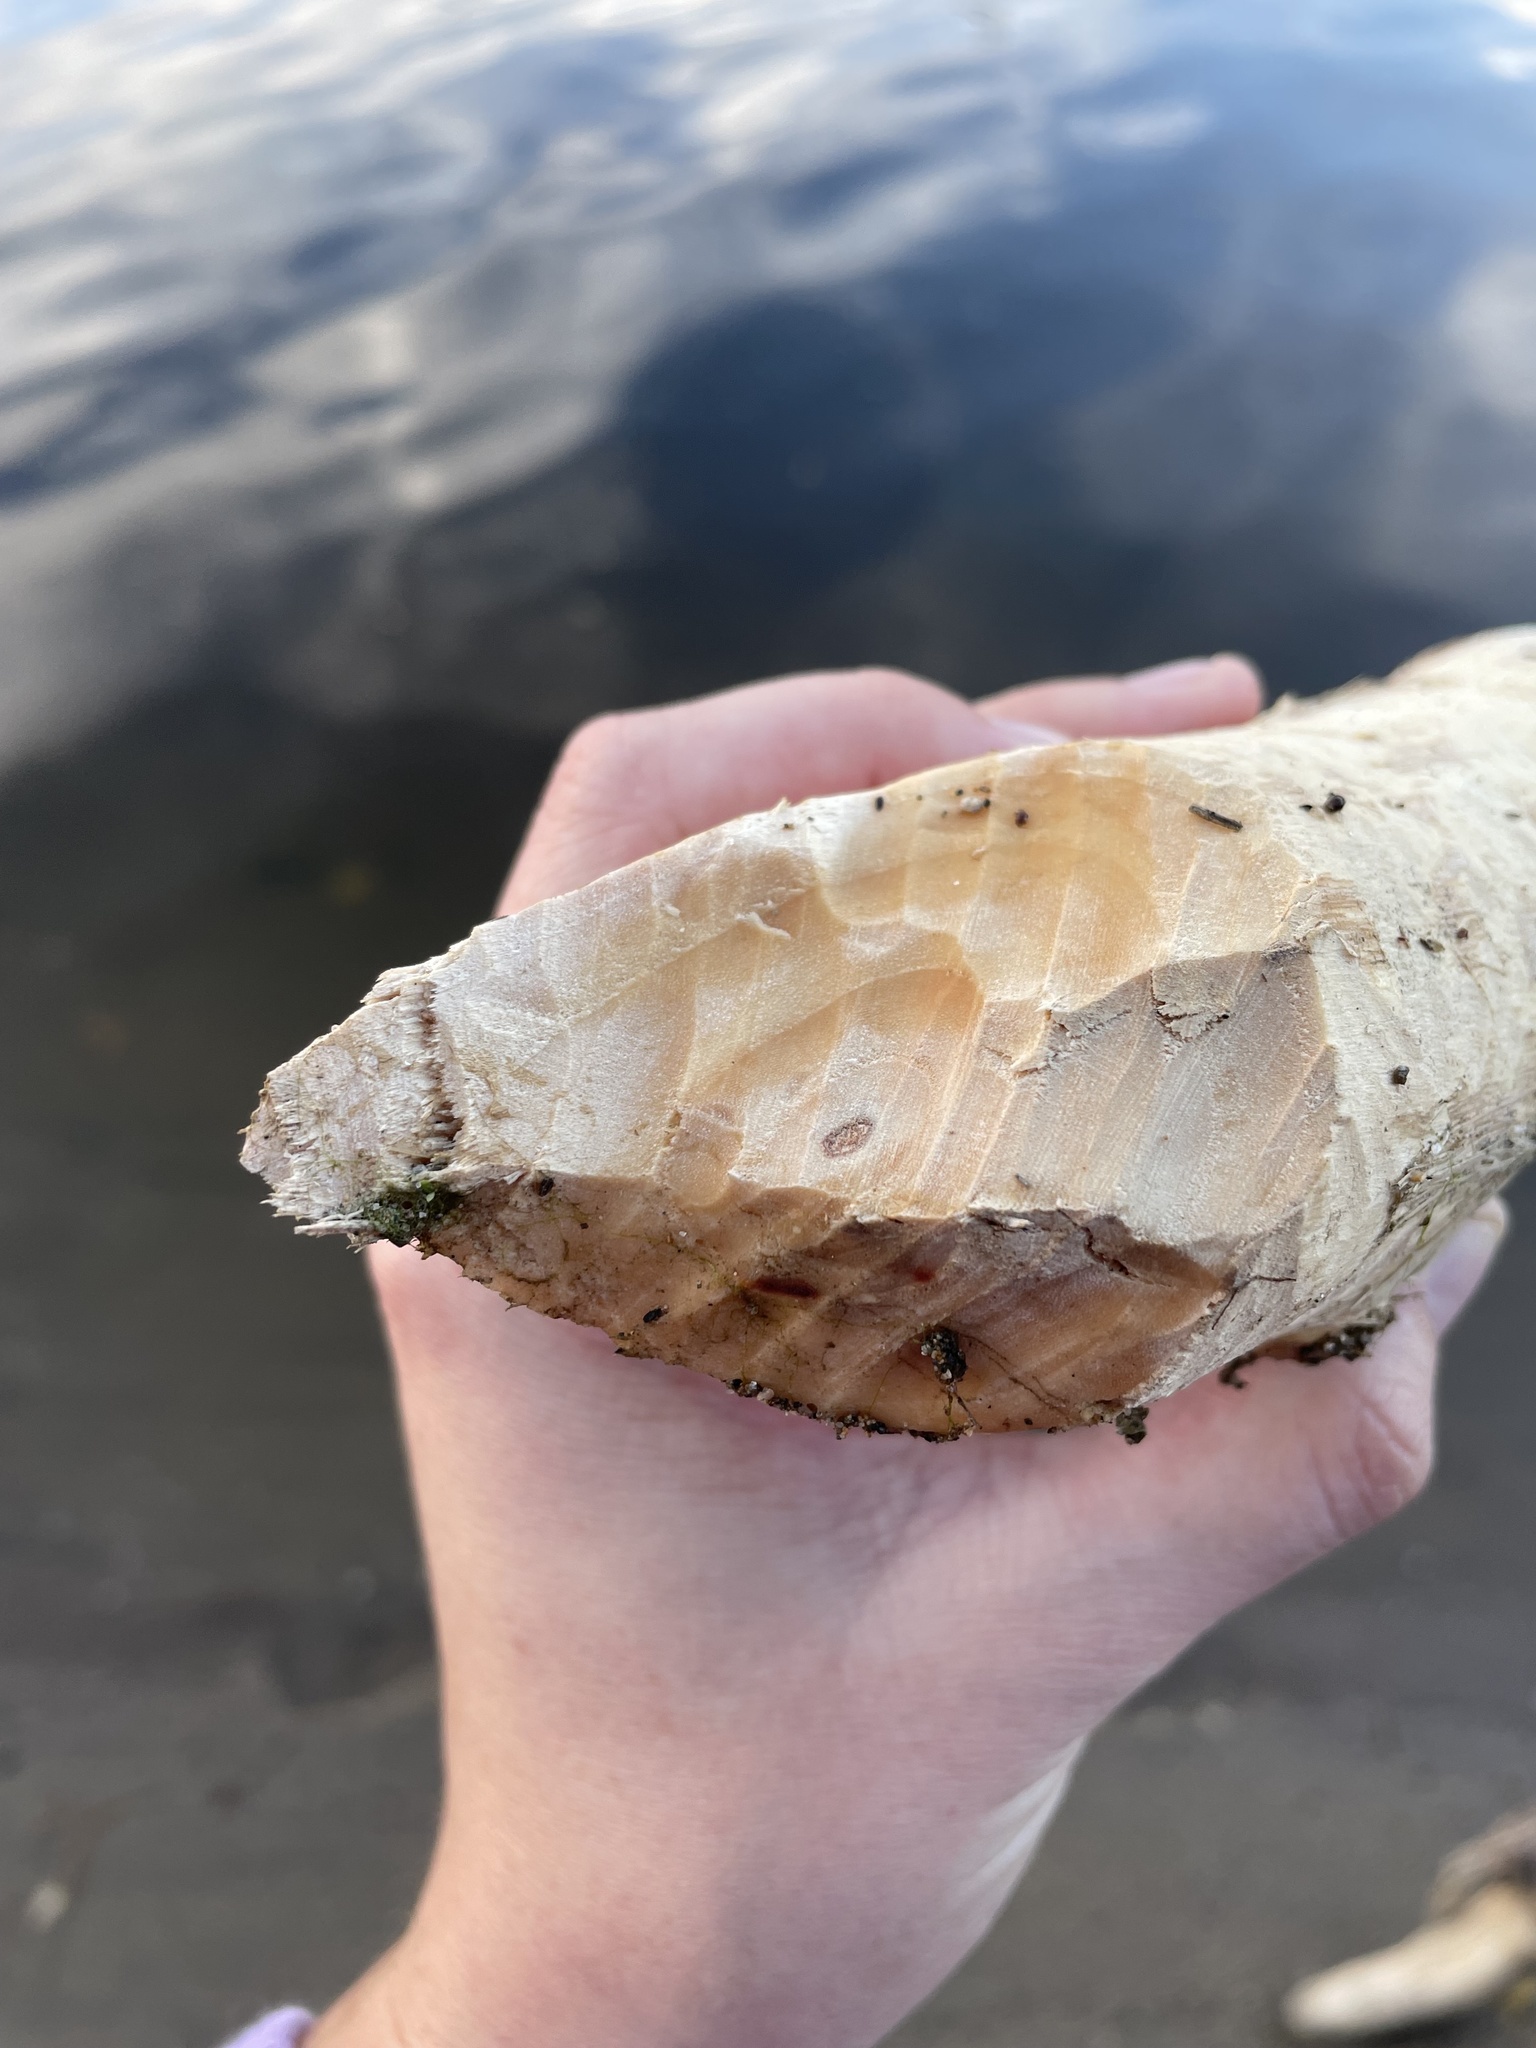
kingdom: Animalia
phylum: Chordata
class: Mammalia
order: Rodentia
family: Castoridae
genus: Castor
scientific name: Castor canadensis
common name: American beaver
